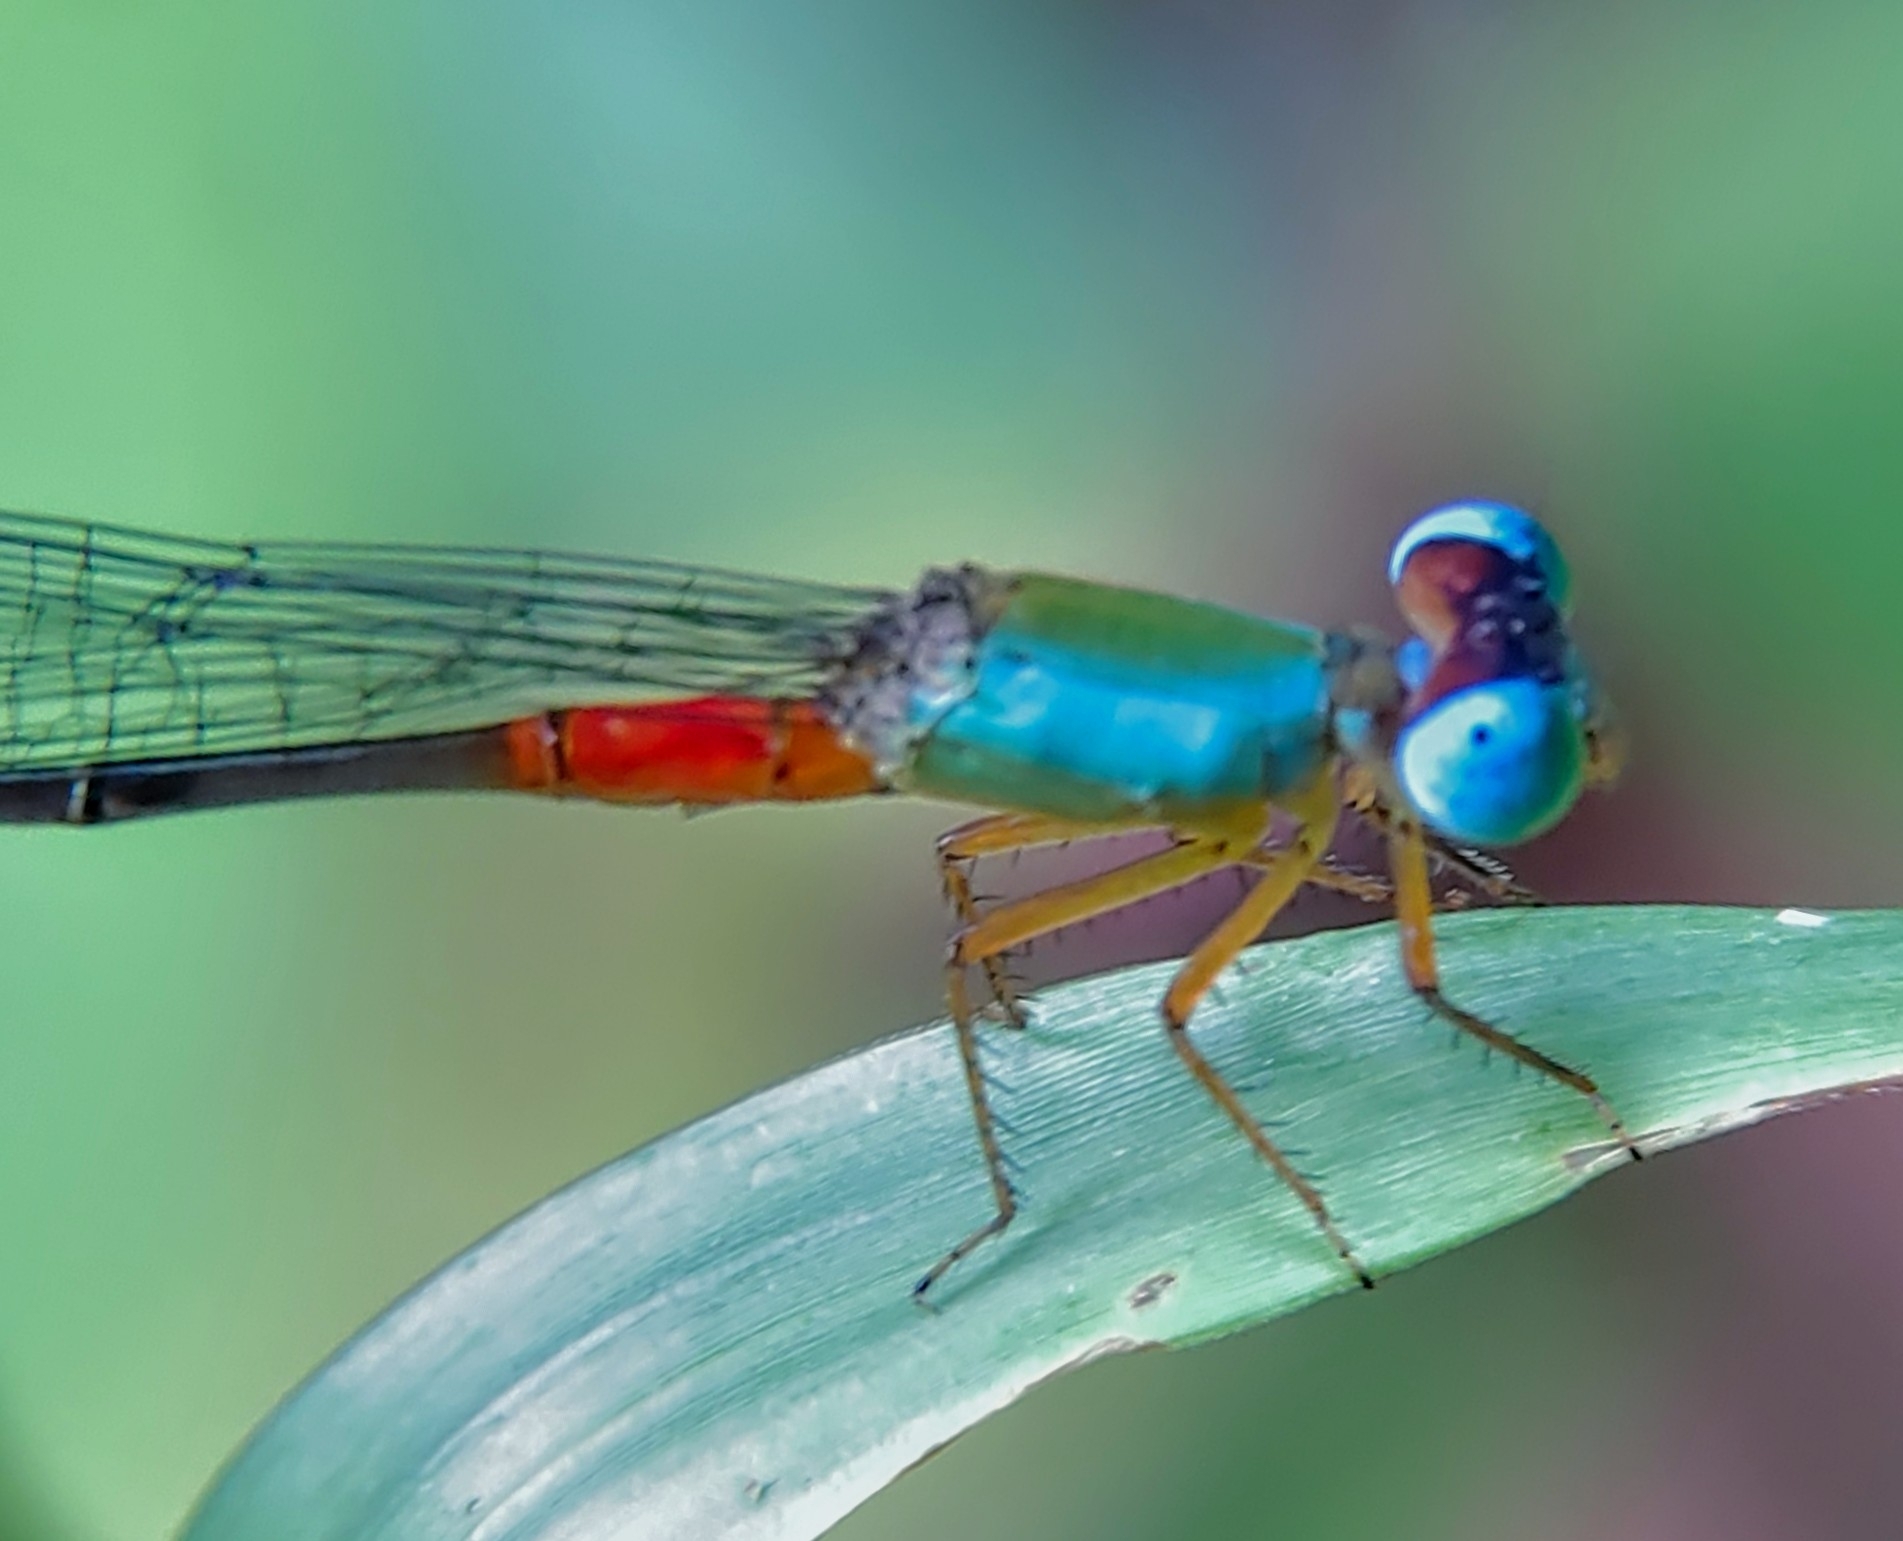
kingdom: Animalia
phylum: Arthropoda
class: Insecta
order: Odonata
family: Coenagrionidae
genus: Ceriagrion
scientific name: Ceriagrion cerinorubellum
